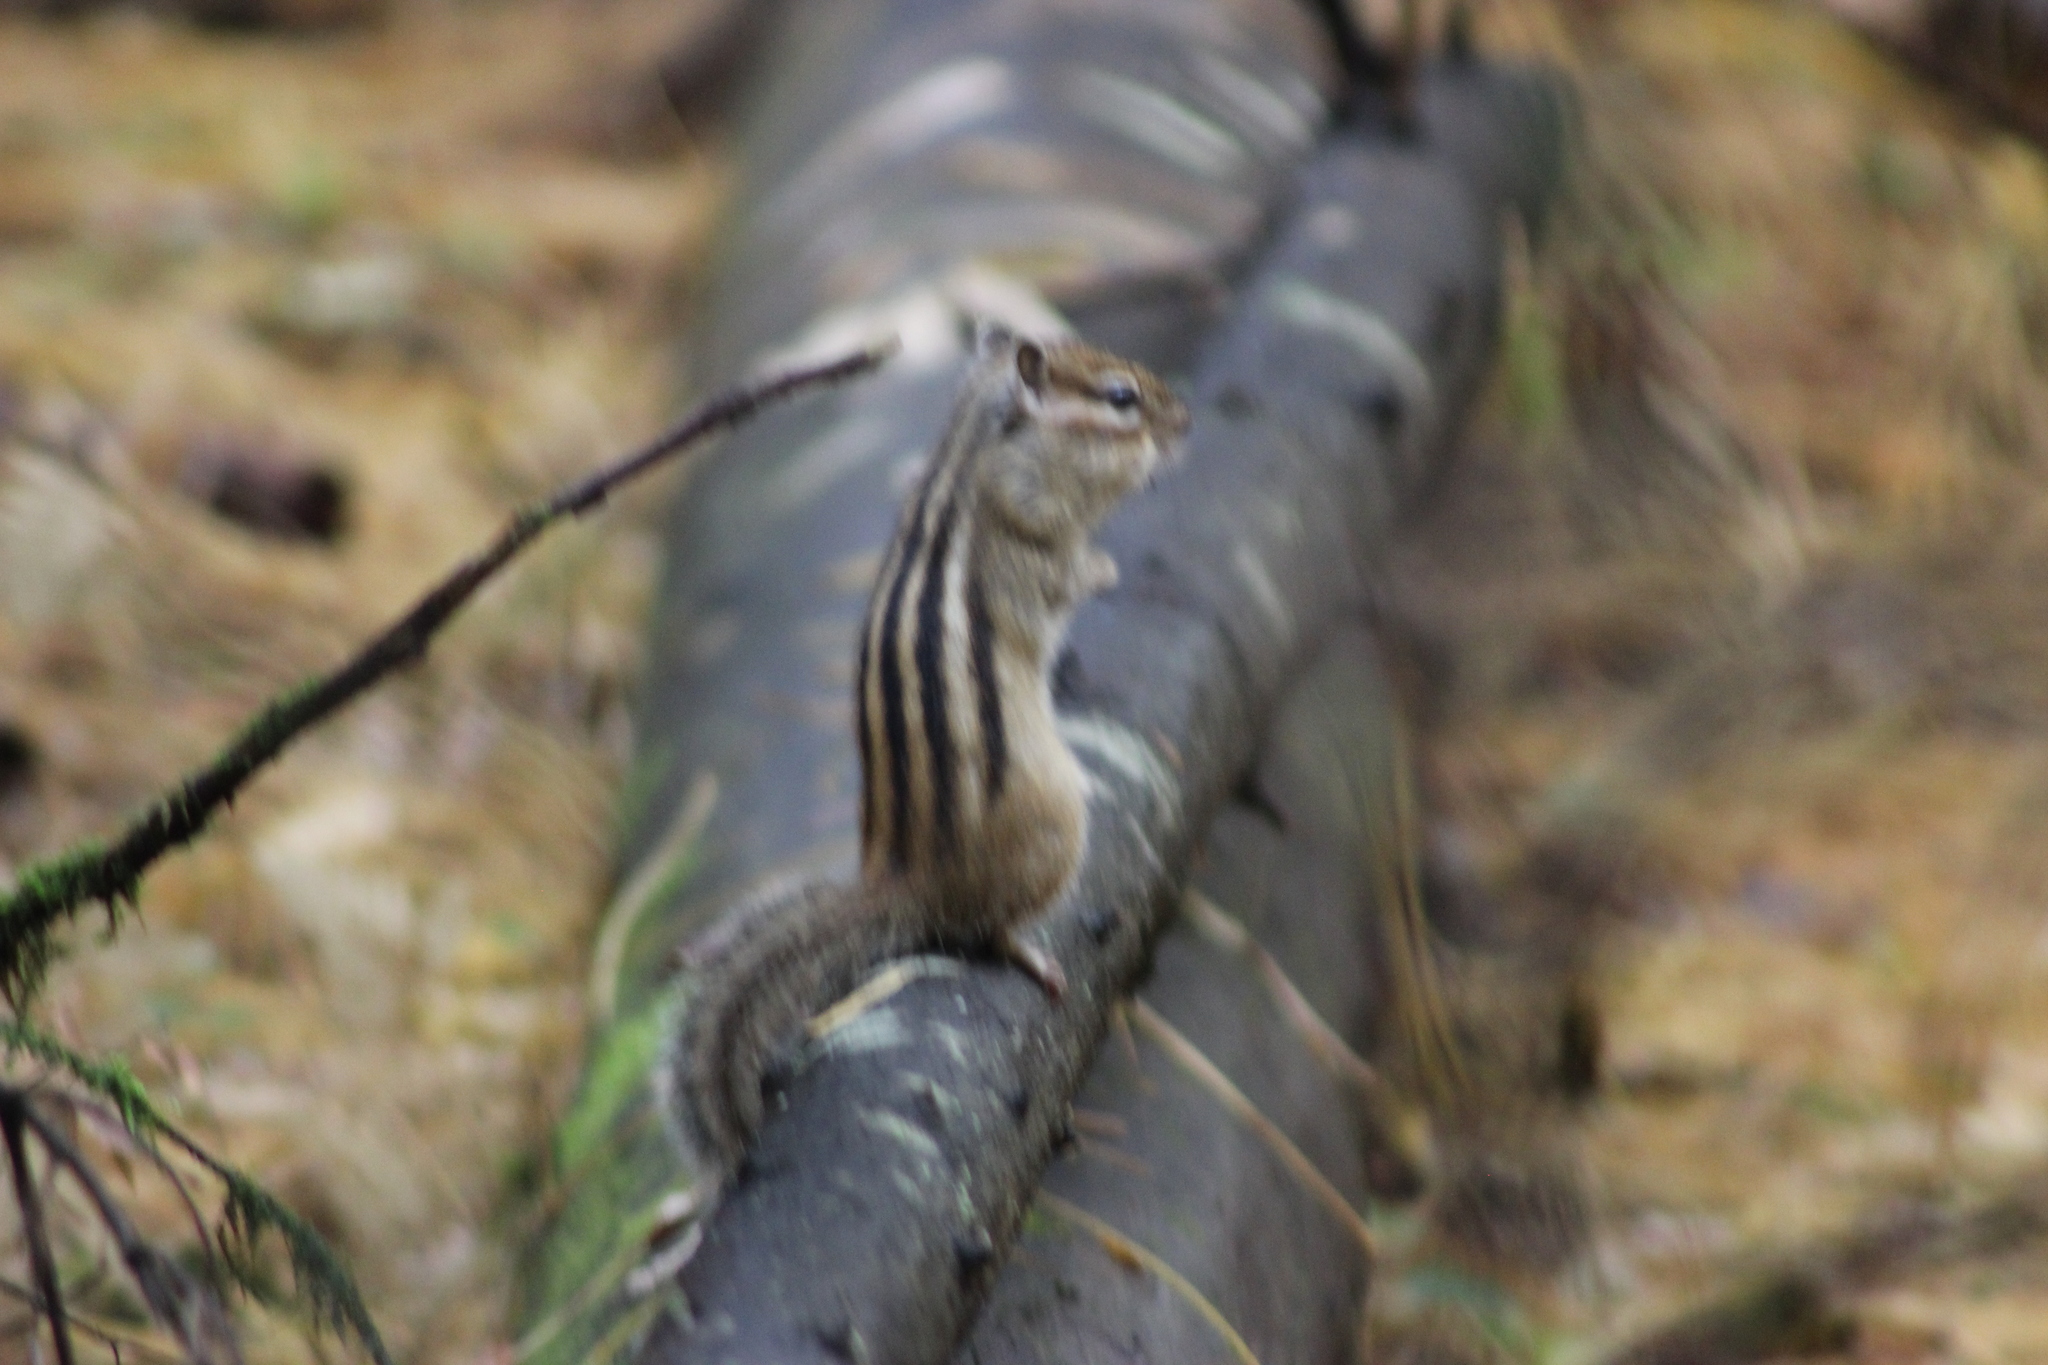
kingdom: Animalia
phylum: Chordata
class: Mammalia
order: Rodentia
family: Sciuridae
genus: Tamias
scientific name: Tamias sibiricus
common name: Siberian chipmunk
